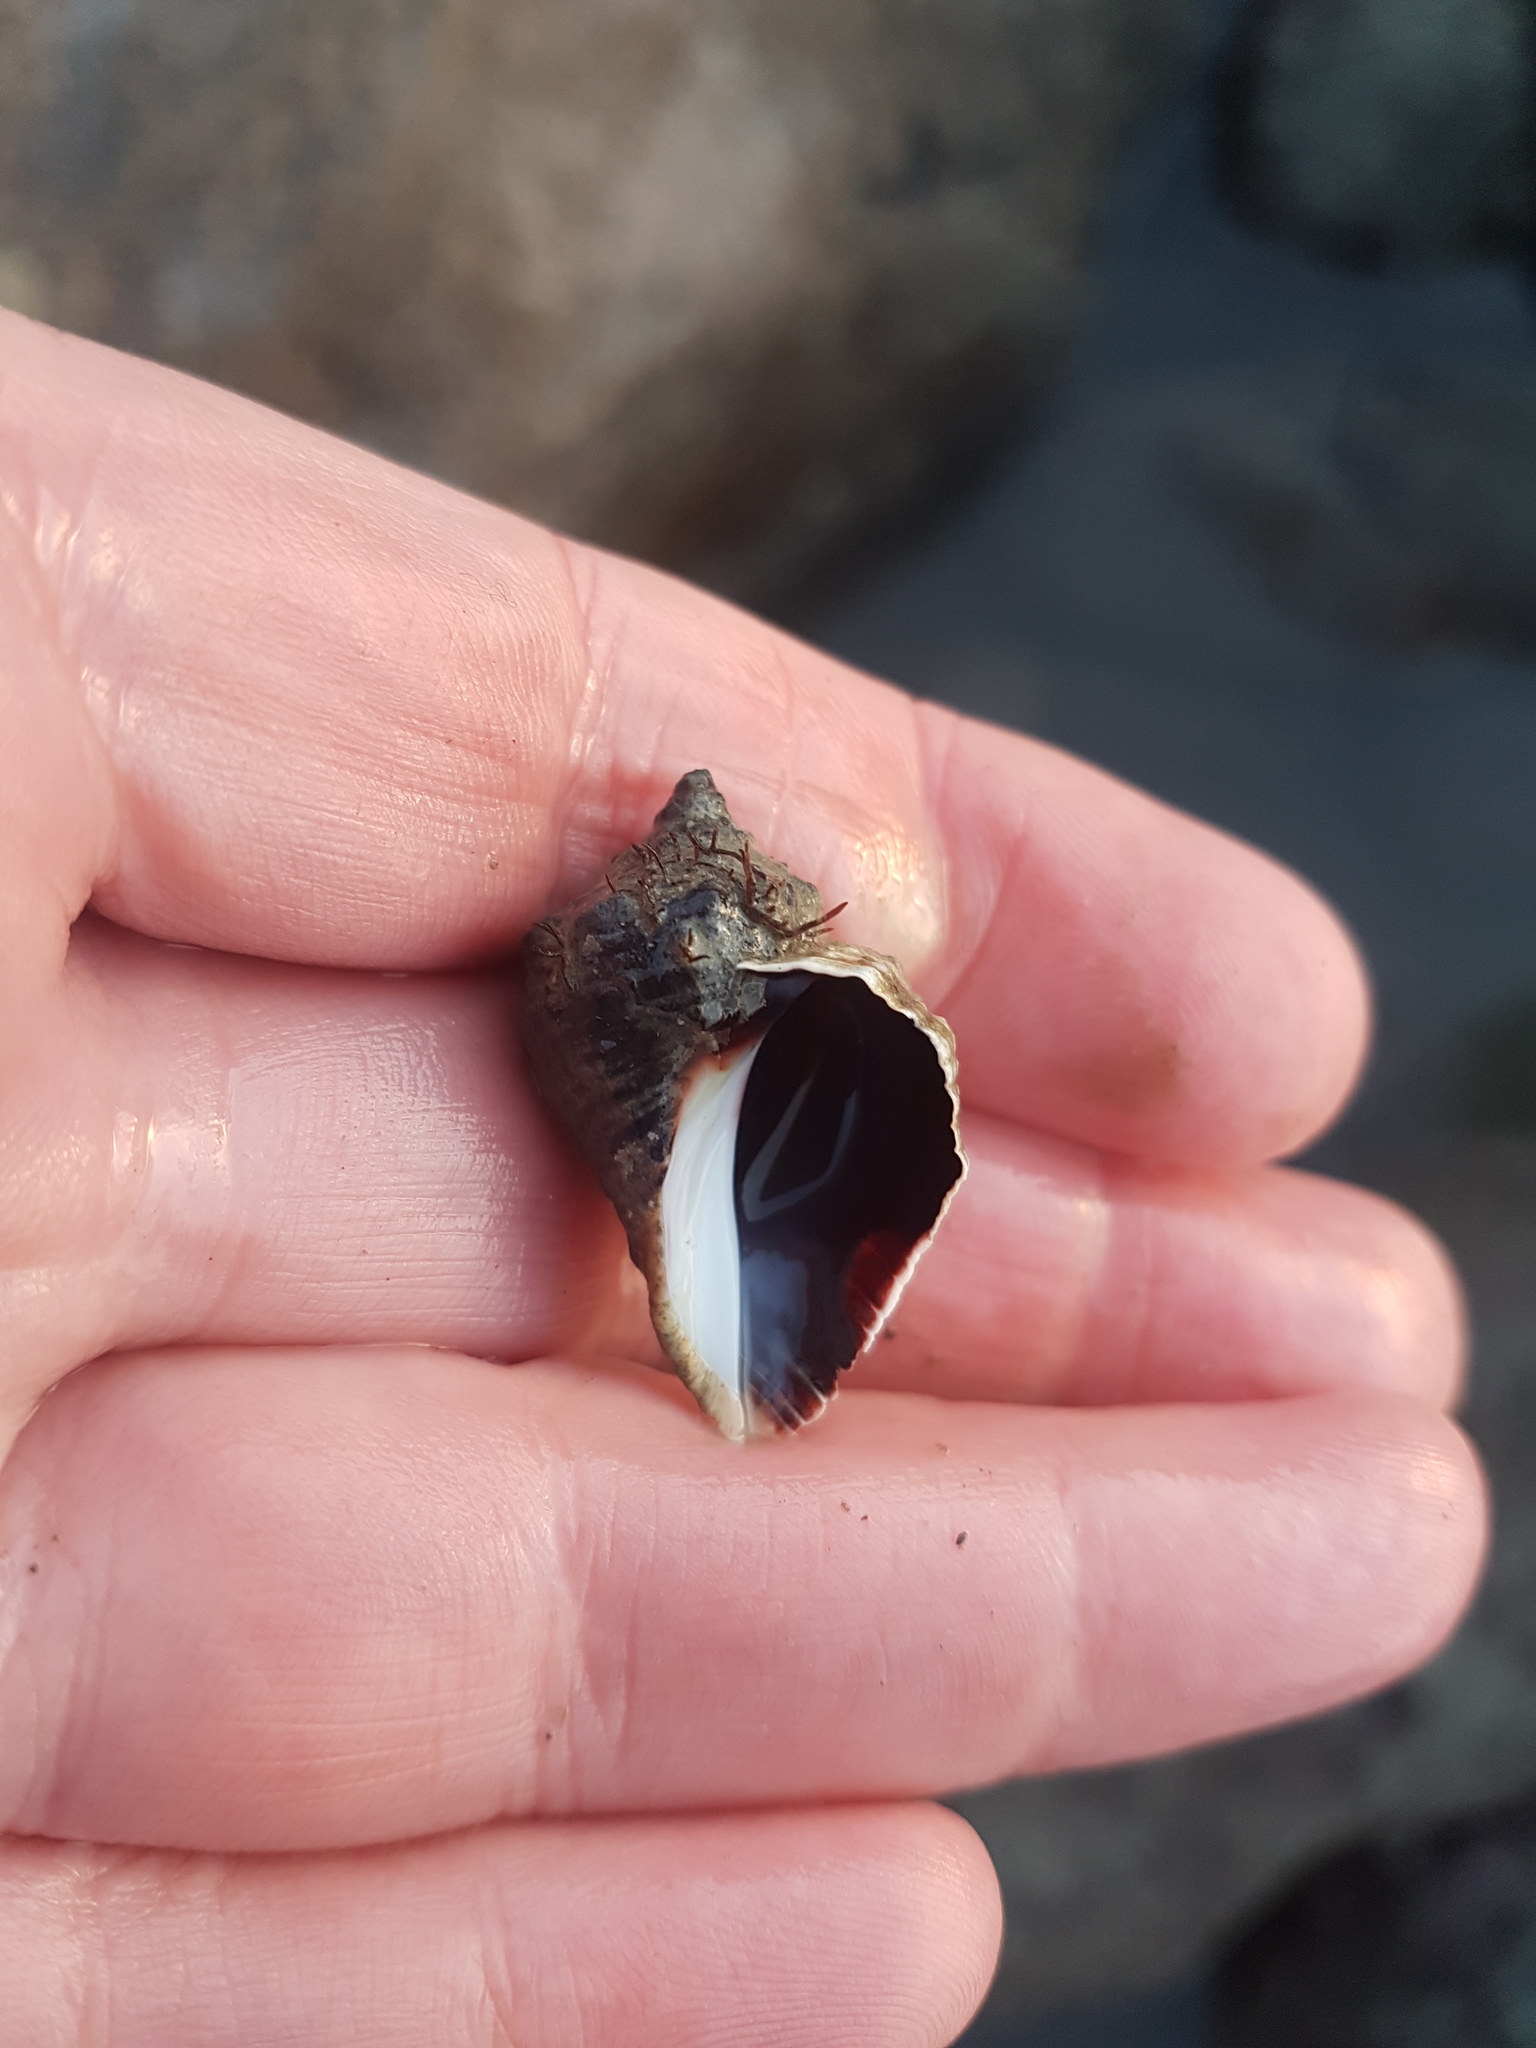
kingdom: Animalia
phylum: Mollusca
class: Gastropoda
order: Neogastropoda
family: Muricidae
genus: Haustrum
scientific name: Haustrum haustorium
